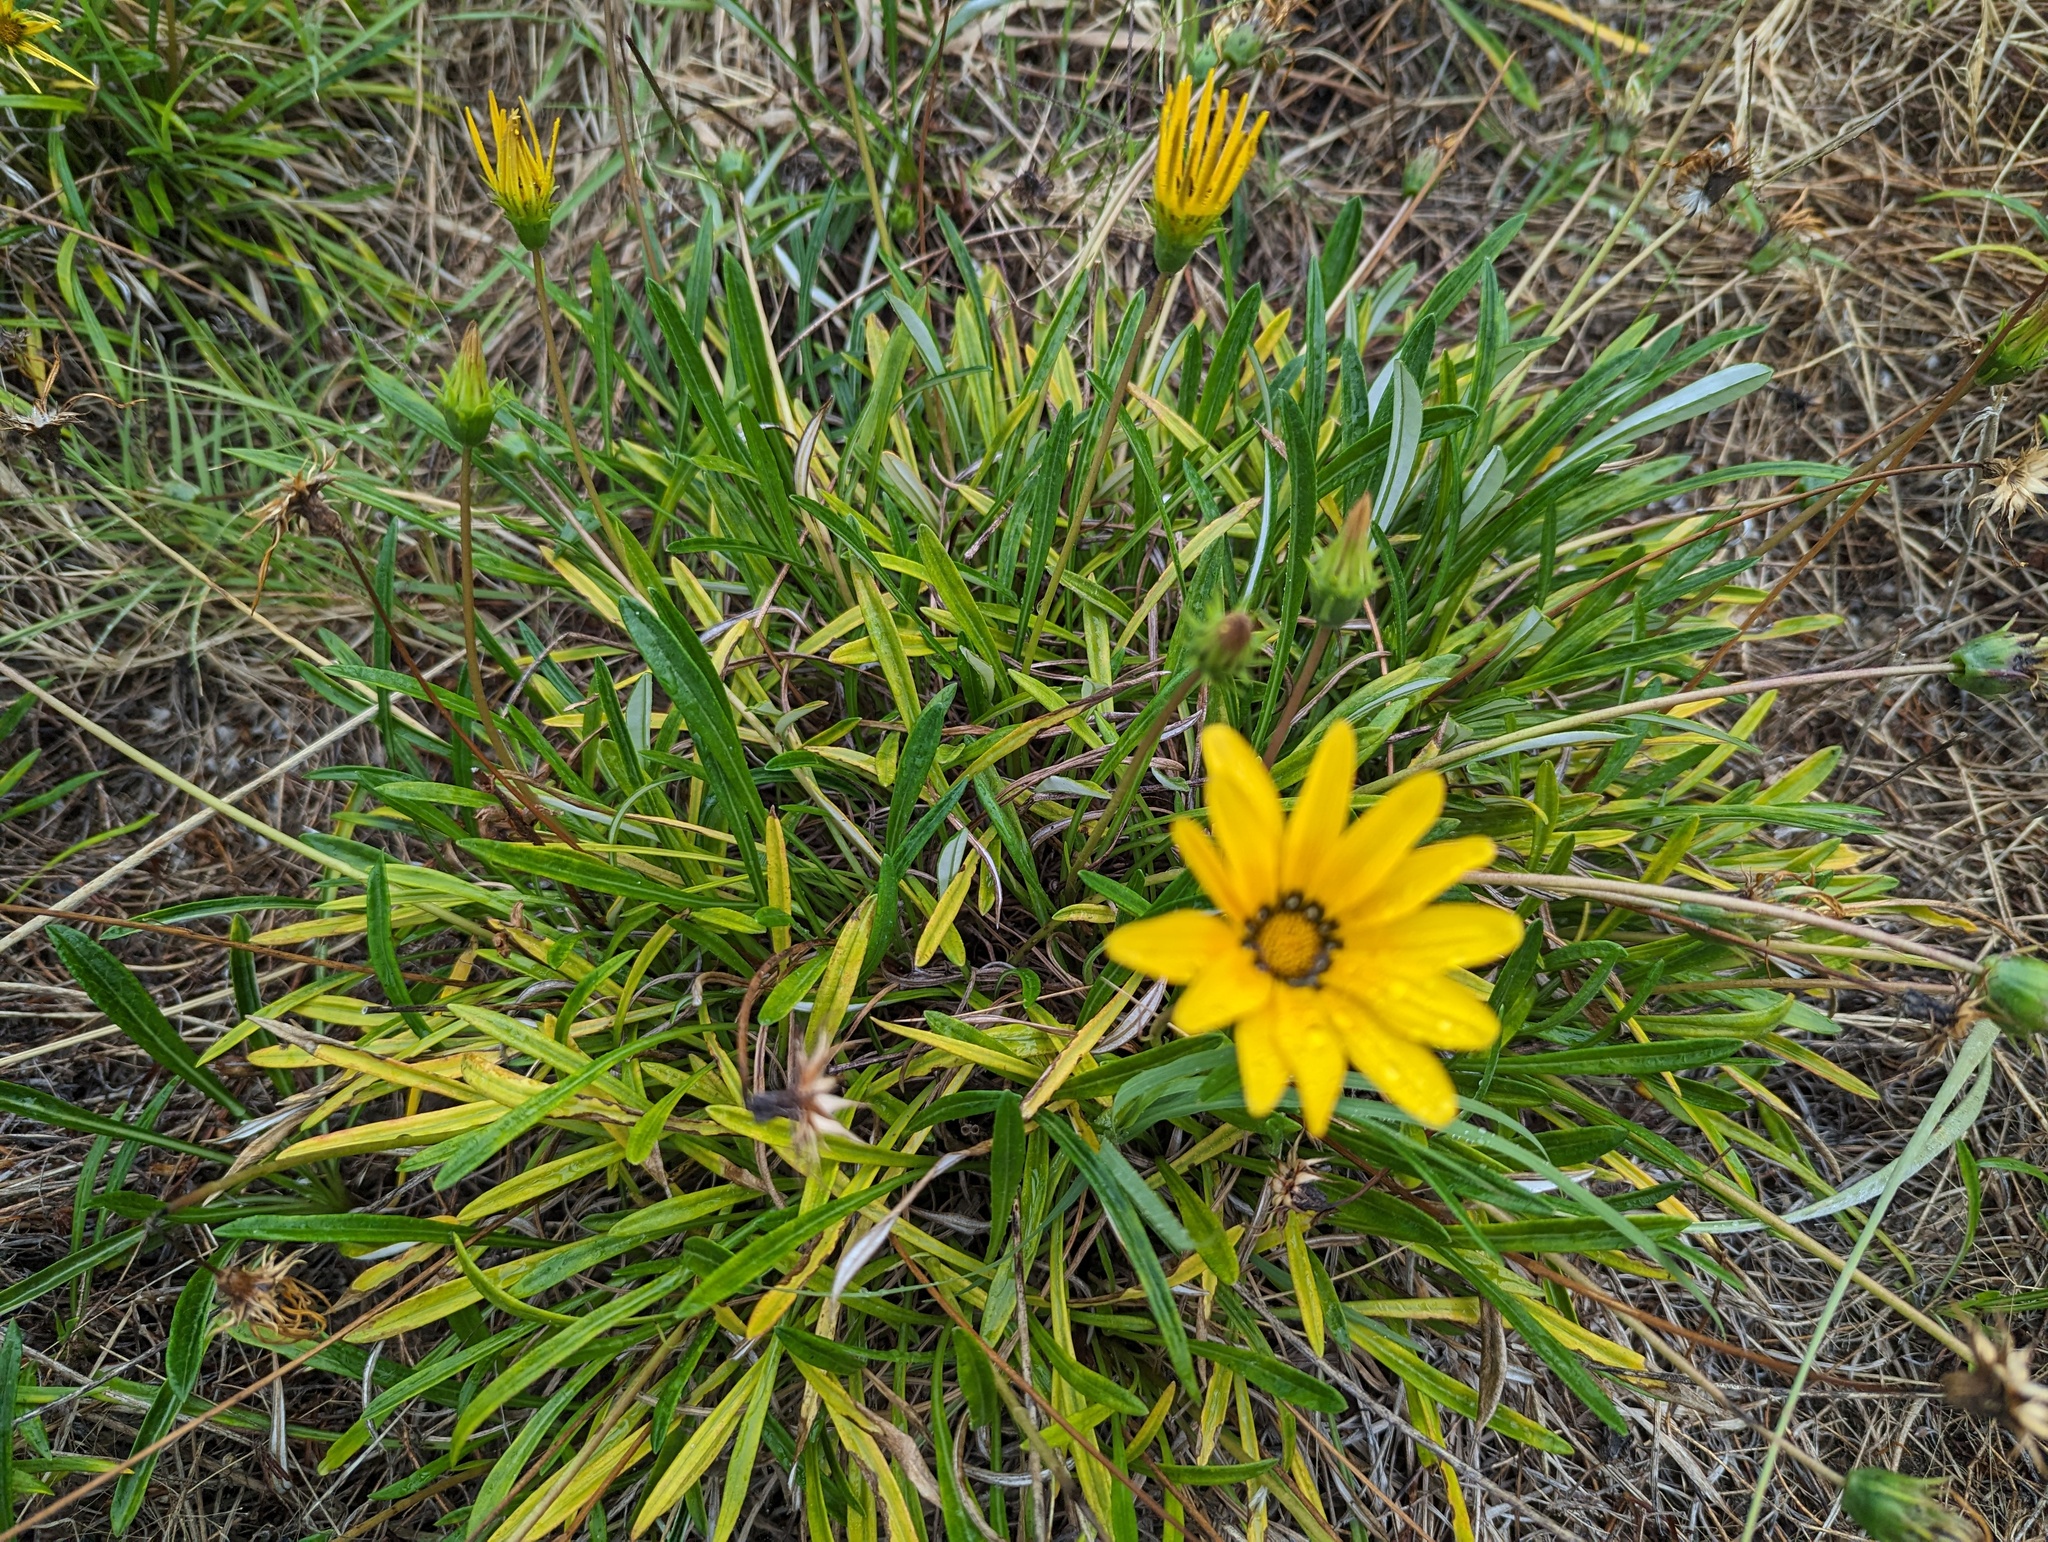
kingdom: Plantae
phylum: Tracheophyta
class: Magnoliopsida
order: Asterales
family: Asteraceae
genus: Gazania
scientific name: Gazania splendens
